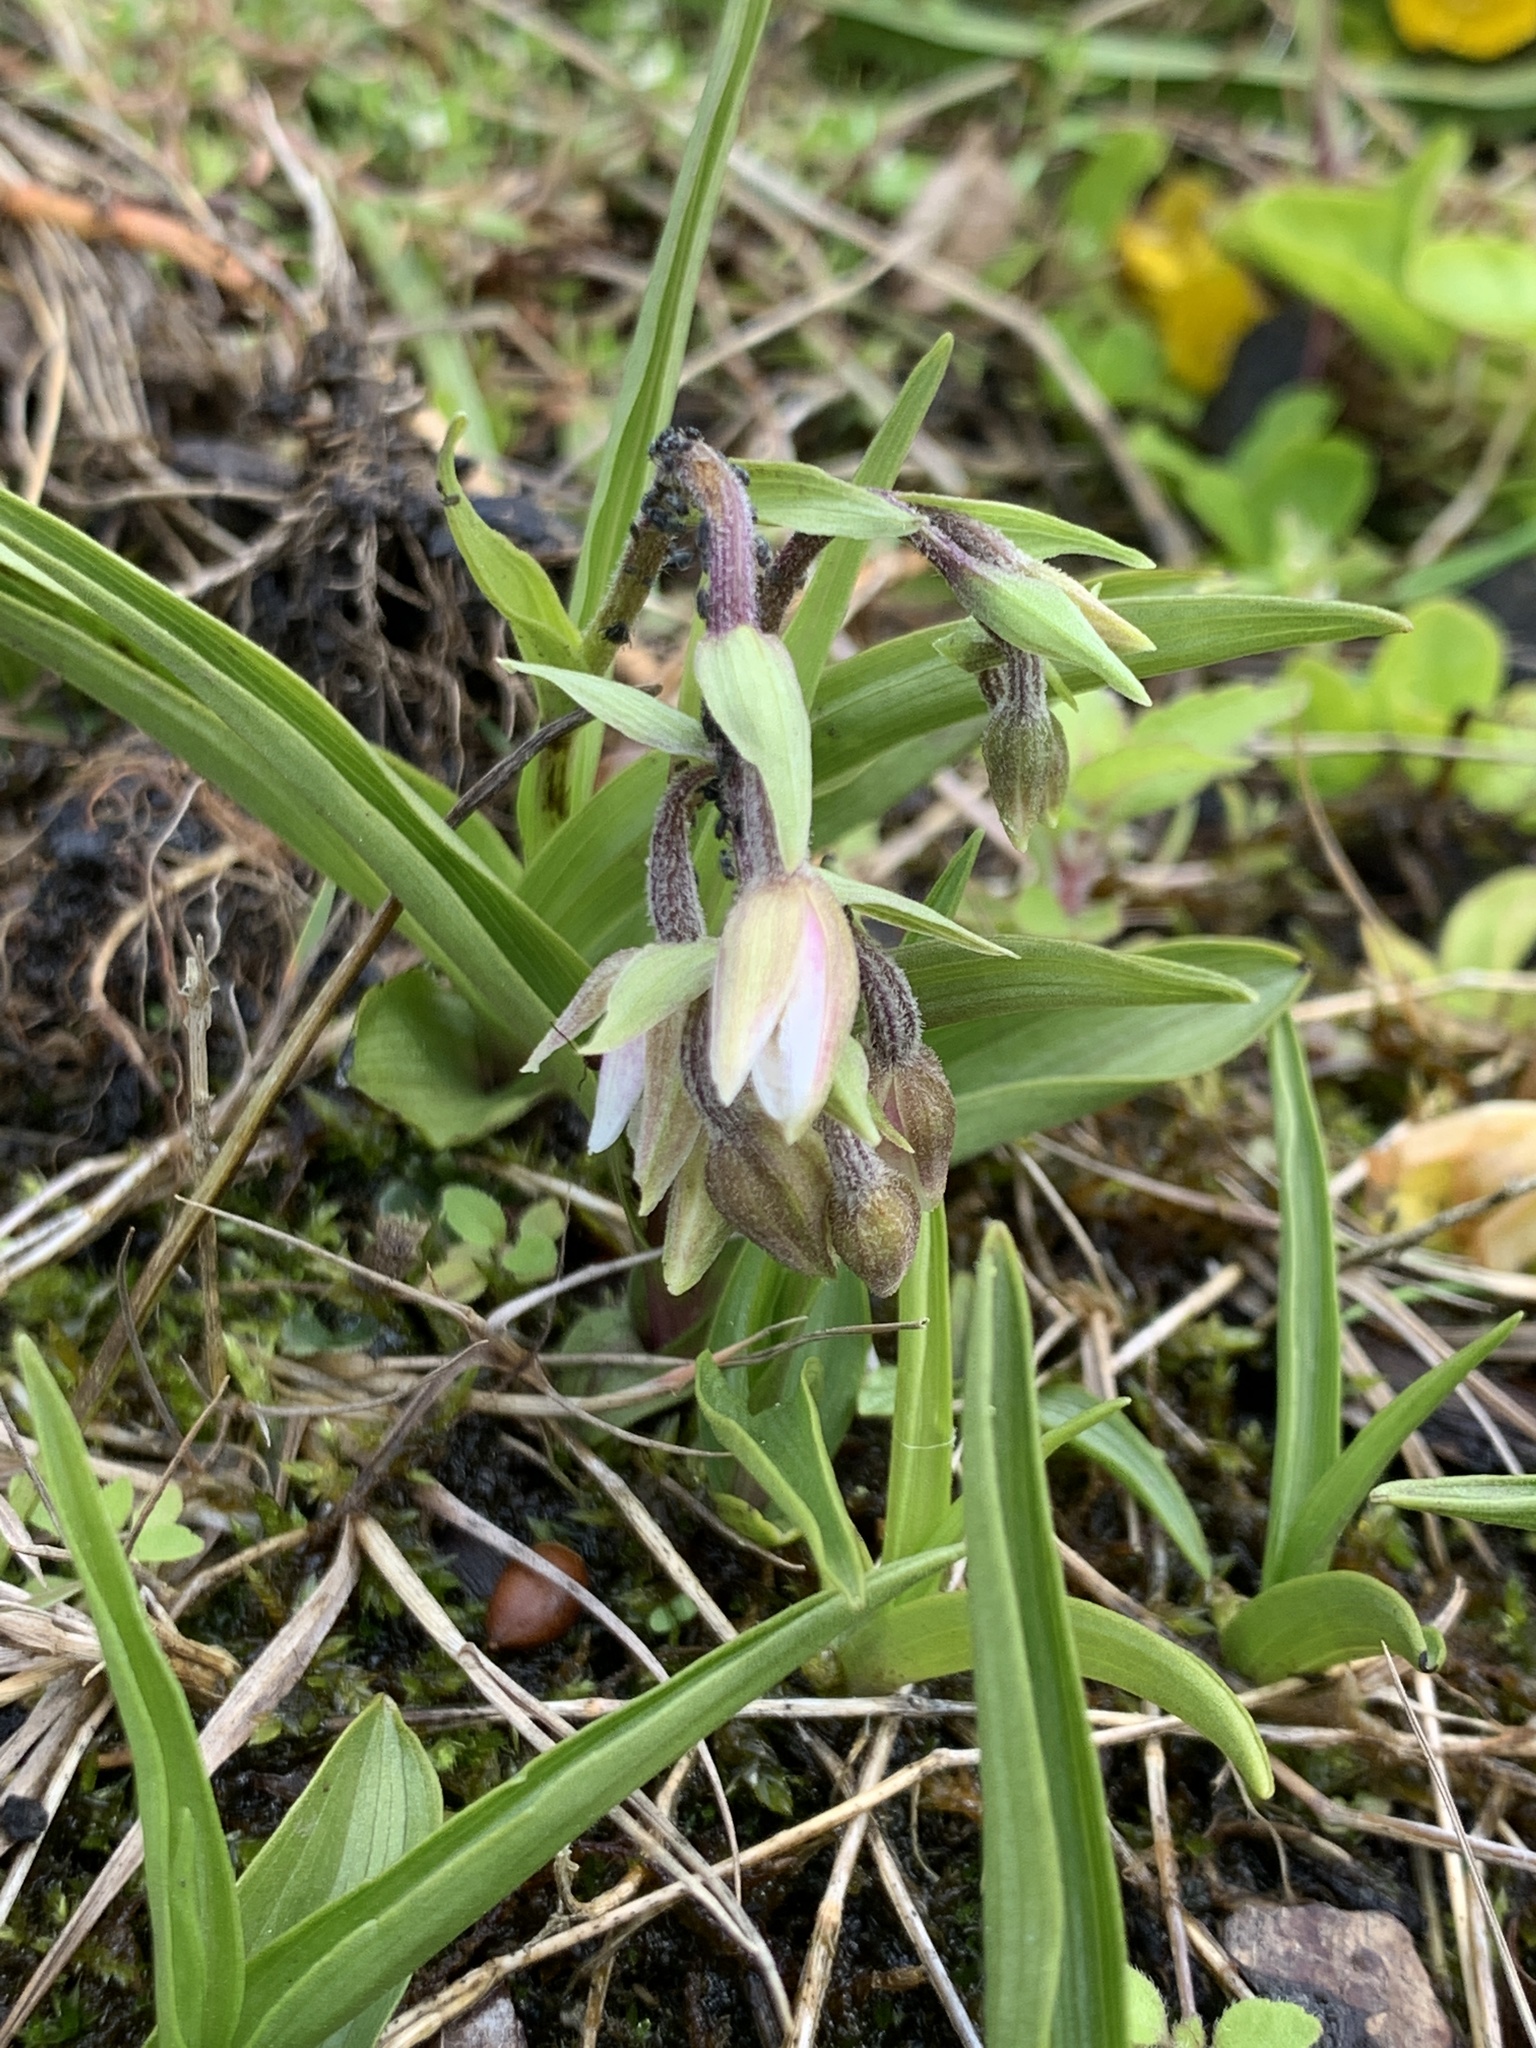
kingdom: Plantae
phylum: Tracheophyta
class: Liliopsida
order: Asparagales
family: Orchidaceae
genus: Epipactis
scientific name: Epipactis palustris
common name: Marsh helleborine
